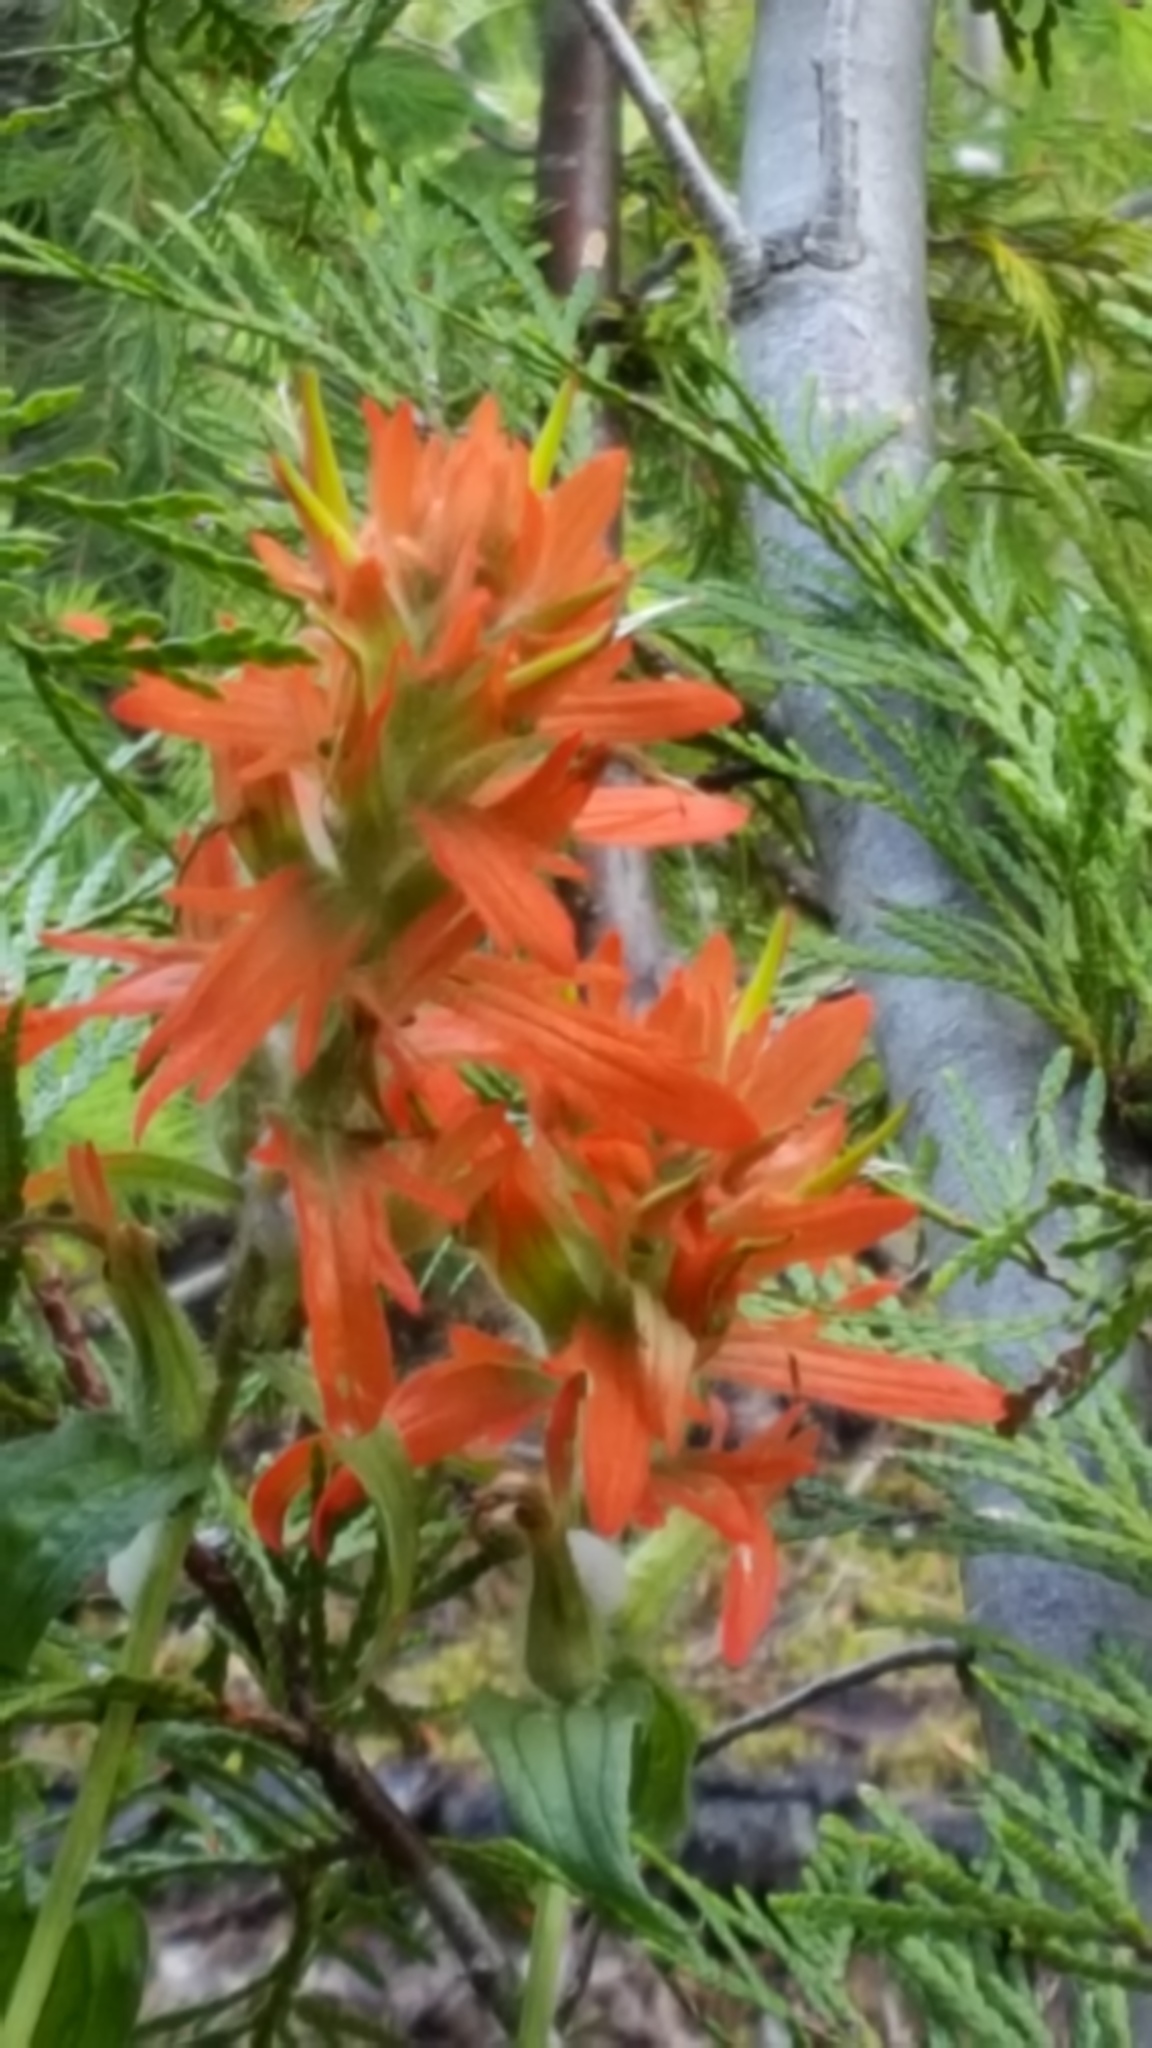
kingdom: Plantae
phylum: Tracheophyta
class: Magnoliopsida
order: Lamiales
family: Orobanchaceae
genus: Castilleja
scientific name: Castilleja miniata
